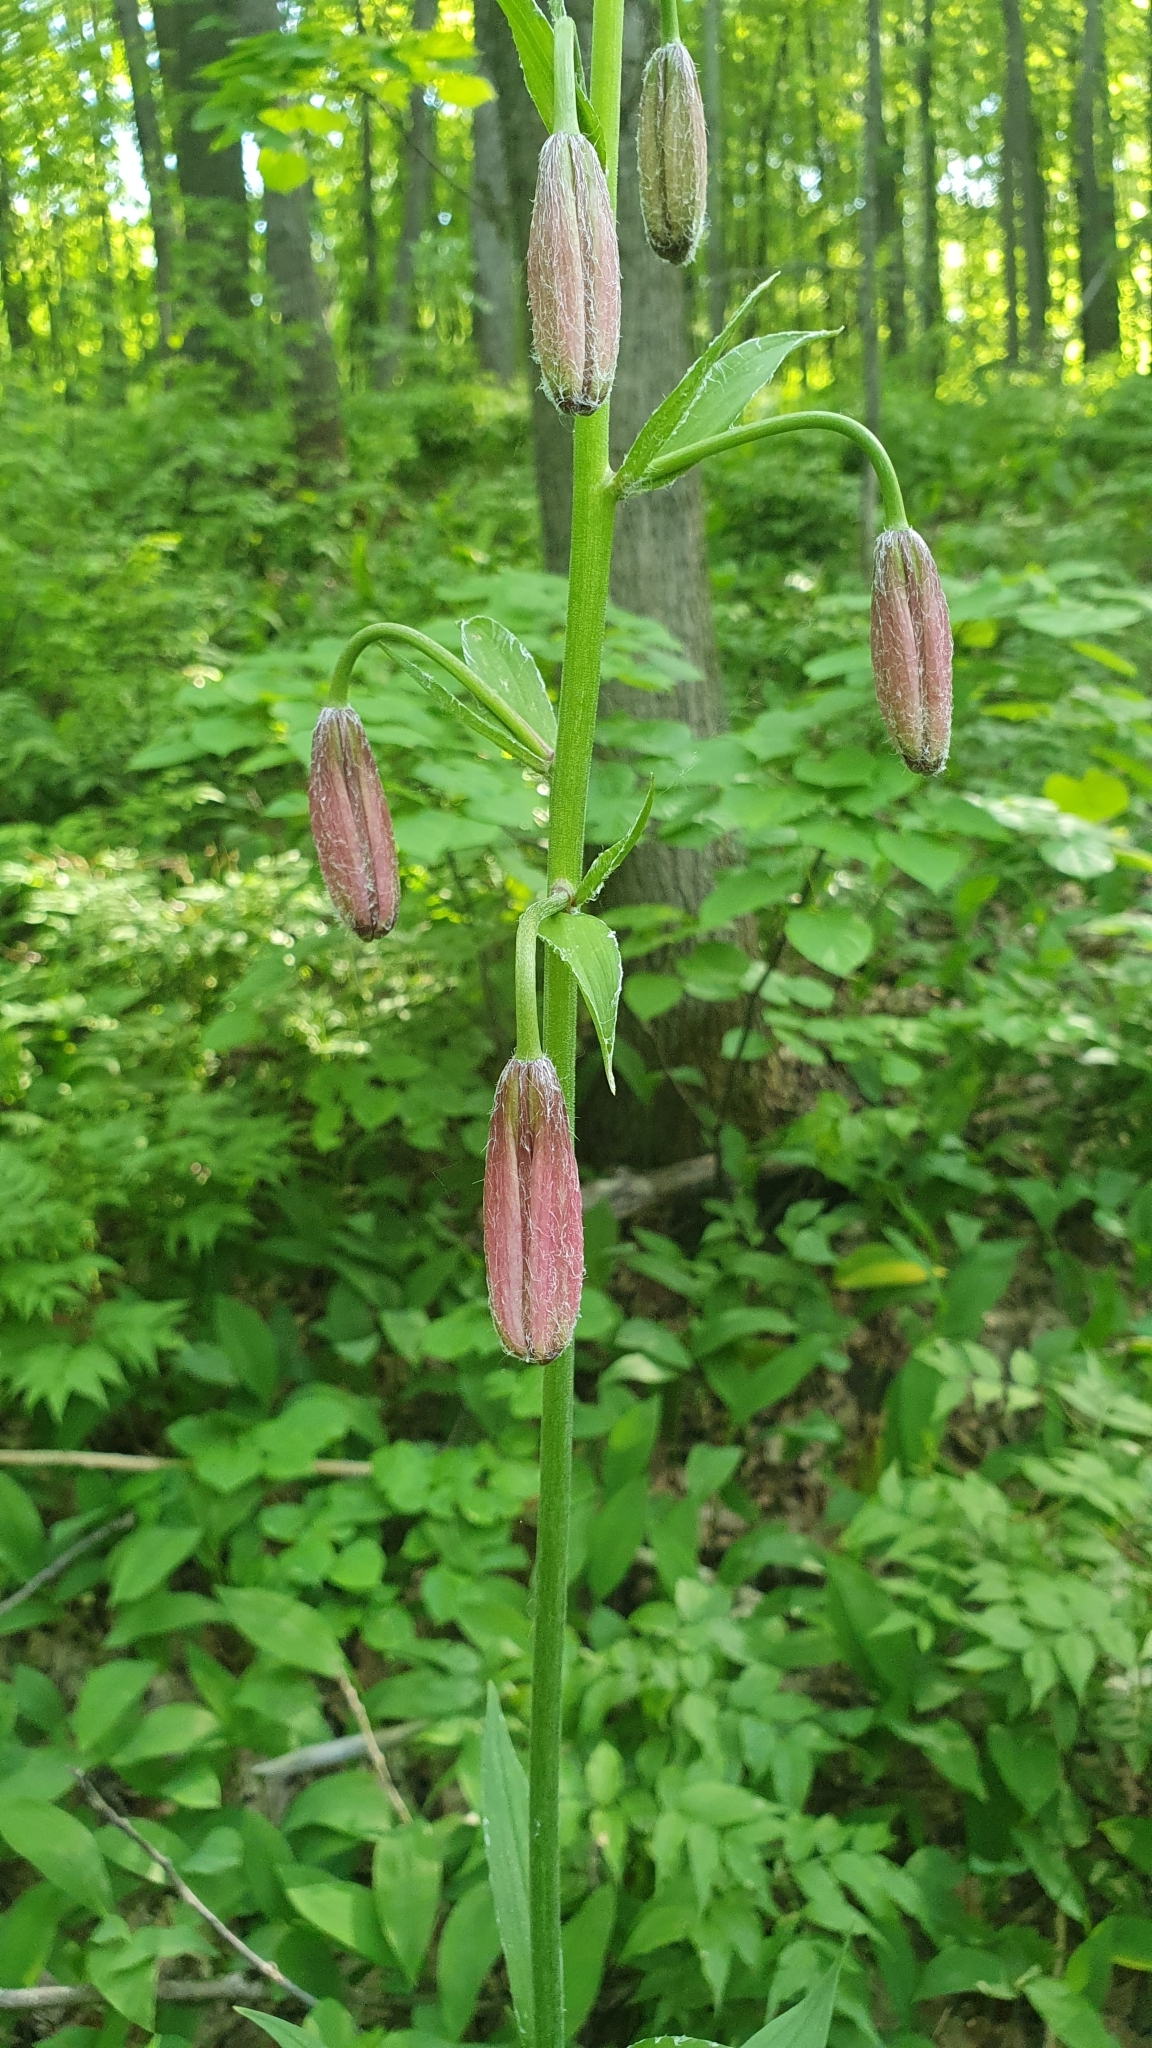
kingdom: Plantae
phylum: Tracheophyta
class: Liliopsida
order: Liliales
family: Liliaceae
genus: Lilium
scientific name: Lilium martagon
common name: Martagon lily
